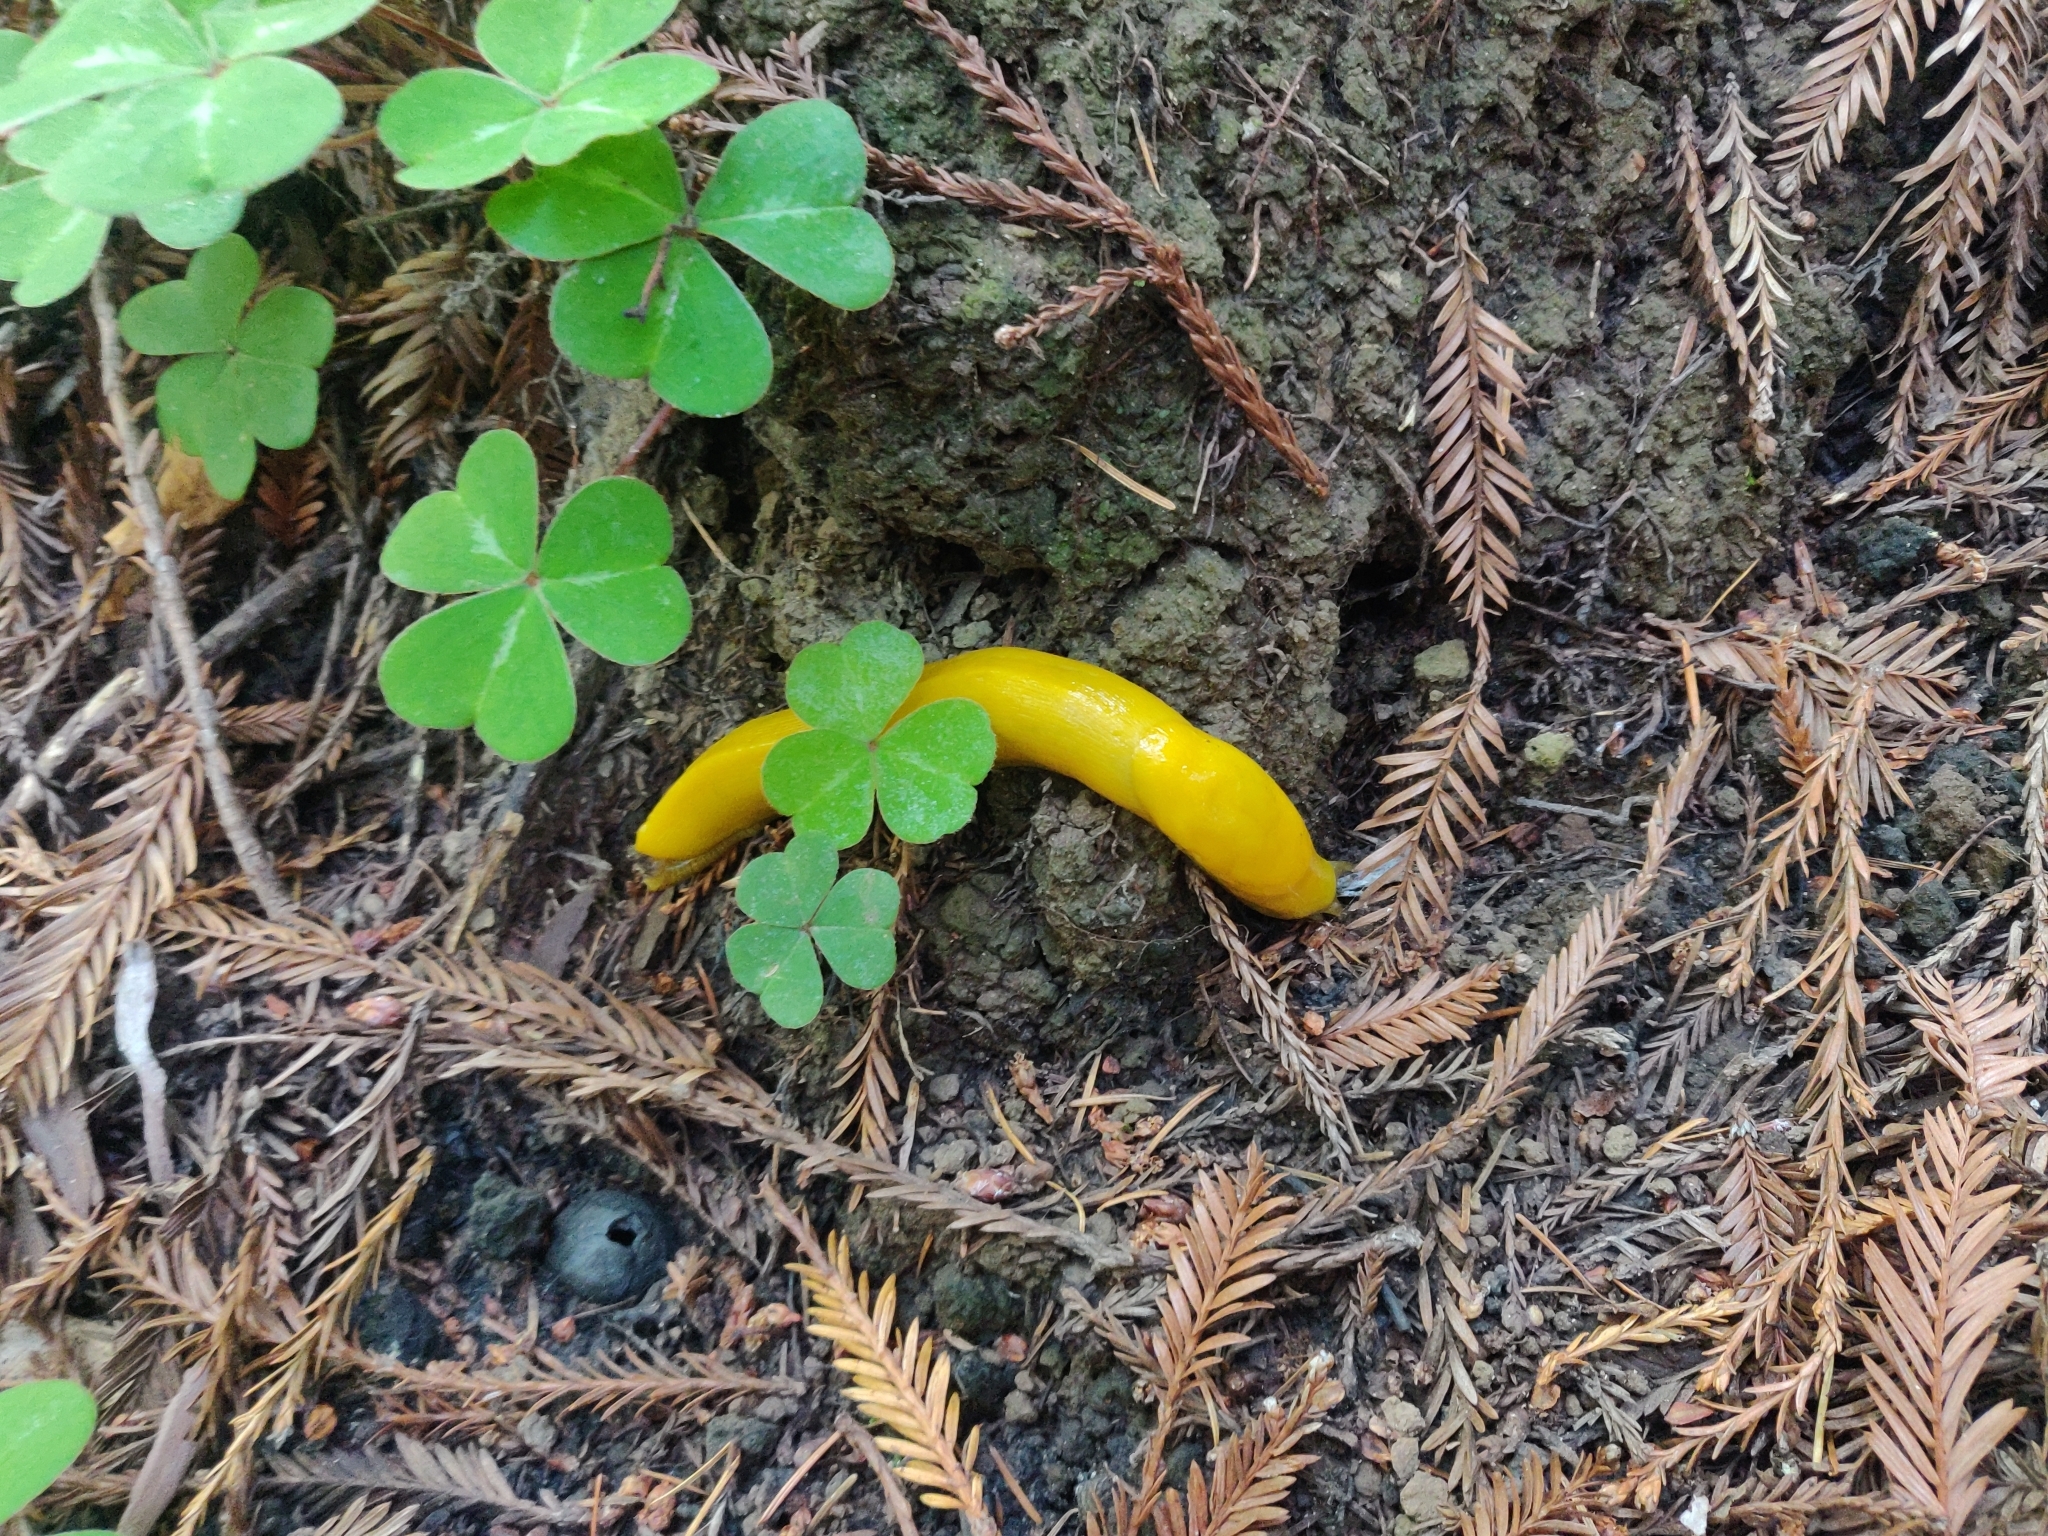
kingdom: Animalia
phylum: Mollusca
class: Gastropoda
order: Stylommatophora
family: Ariolimacidae
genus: Ariolimax
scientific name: Ariolimax californicus
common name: California banana slug
